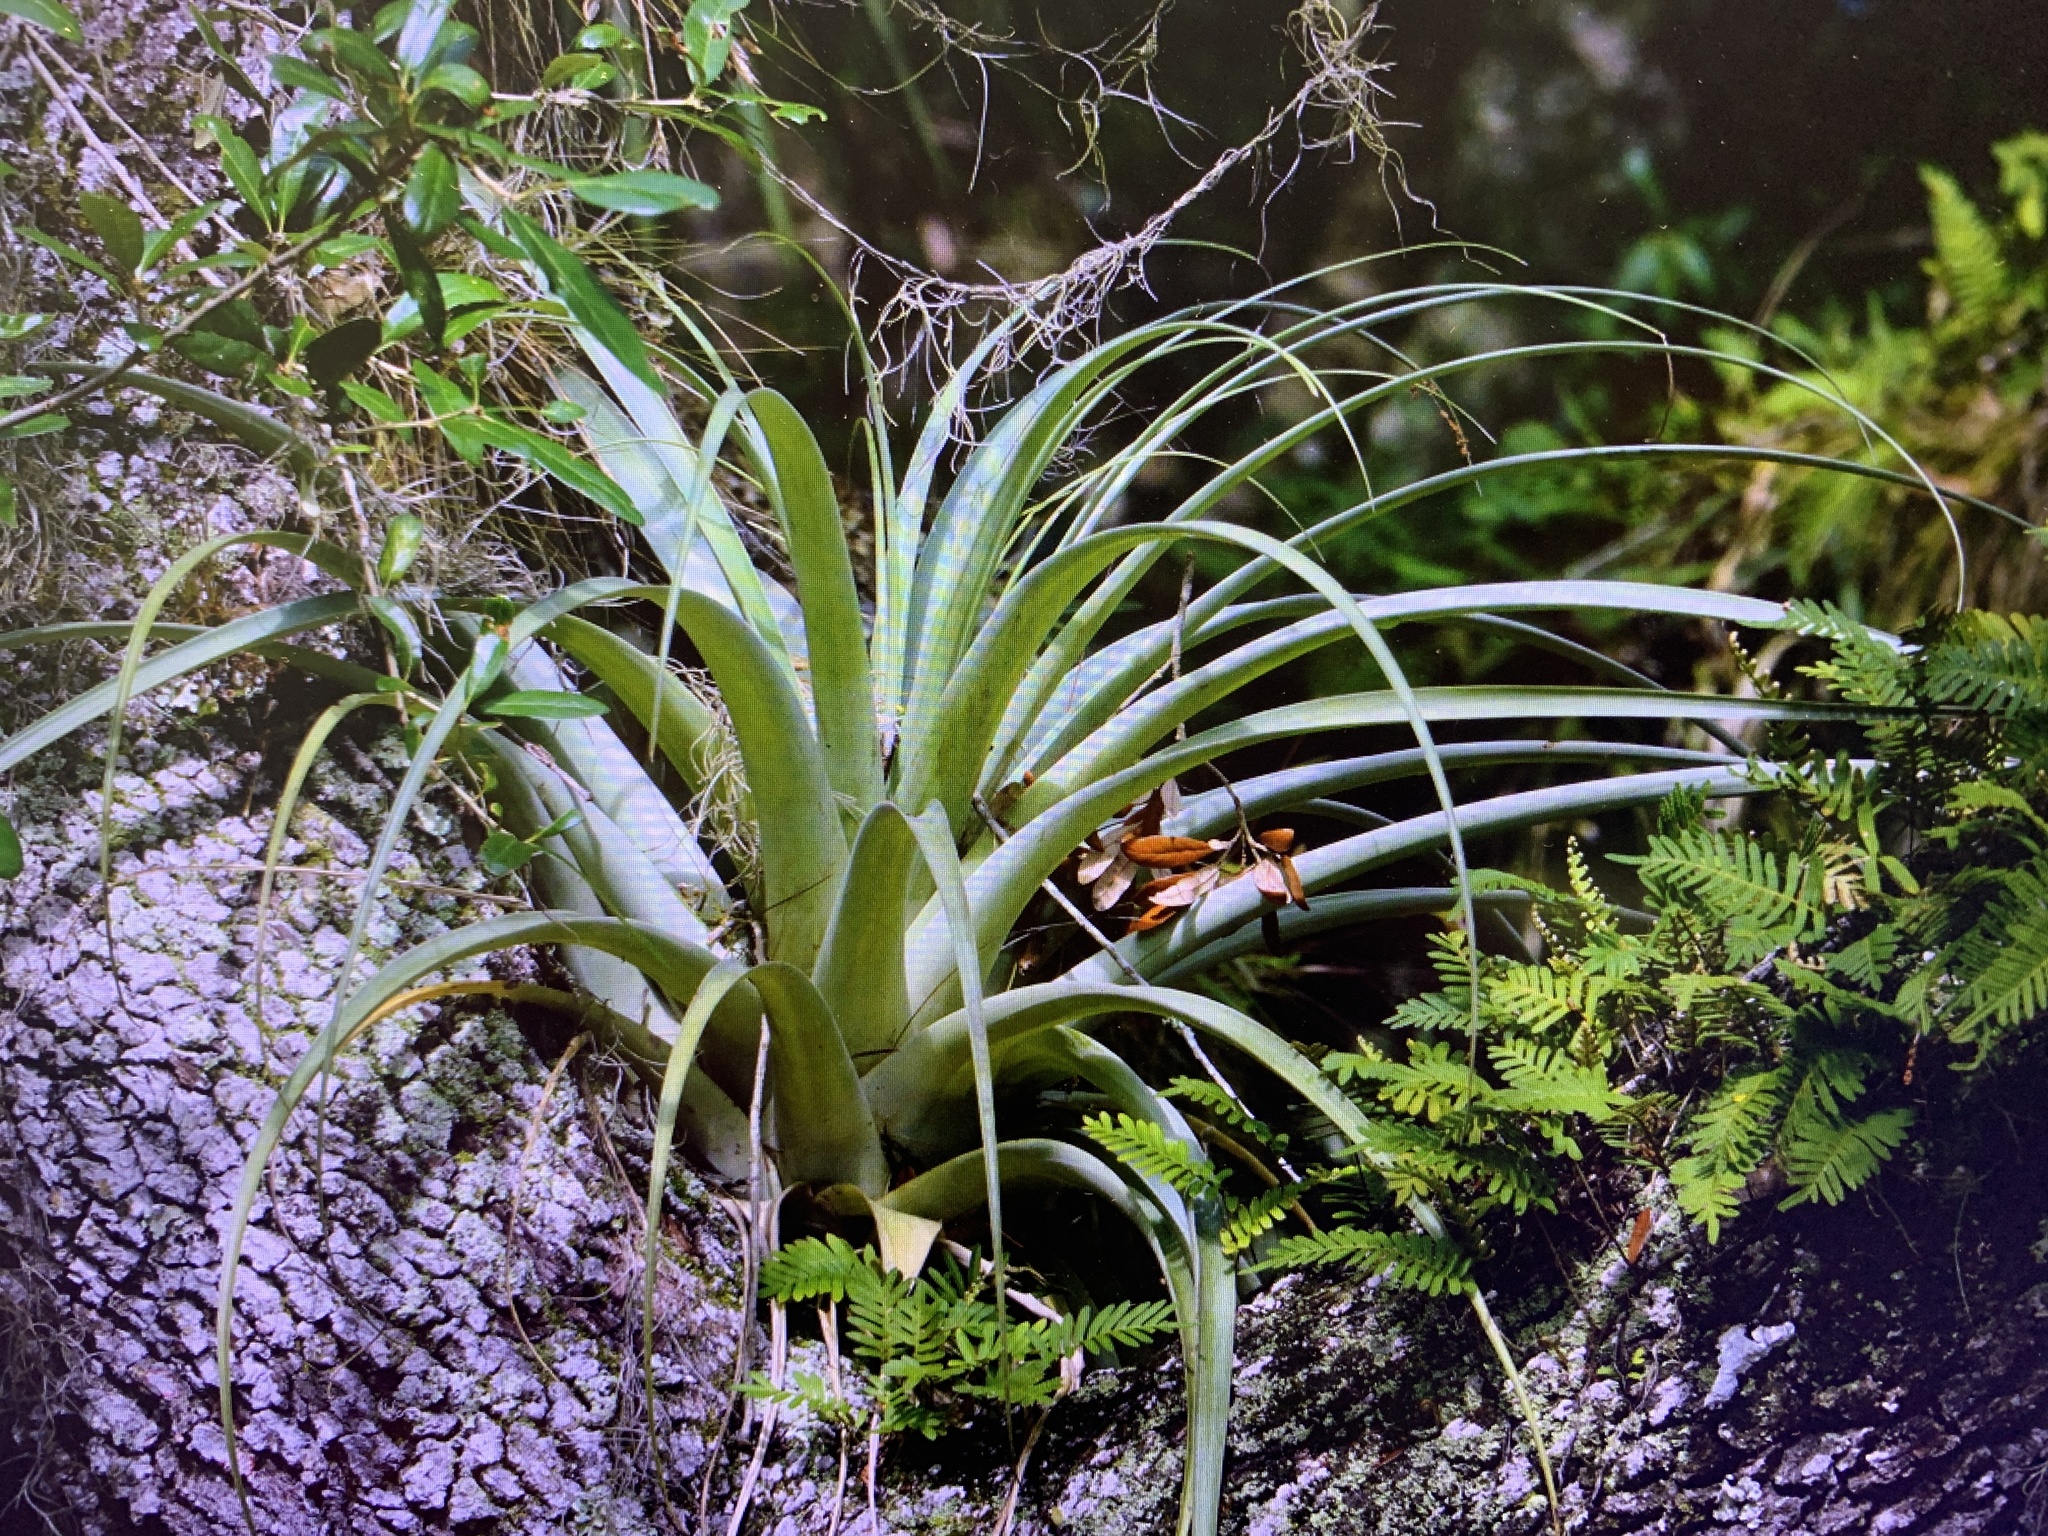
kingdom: Plantae
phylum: Tracheophyta
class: Liliopsida
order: Poales
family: Bromeliaceae
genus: Tillandsia
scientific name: Tillandsia utriculata
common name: Wild pine
